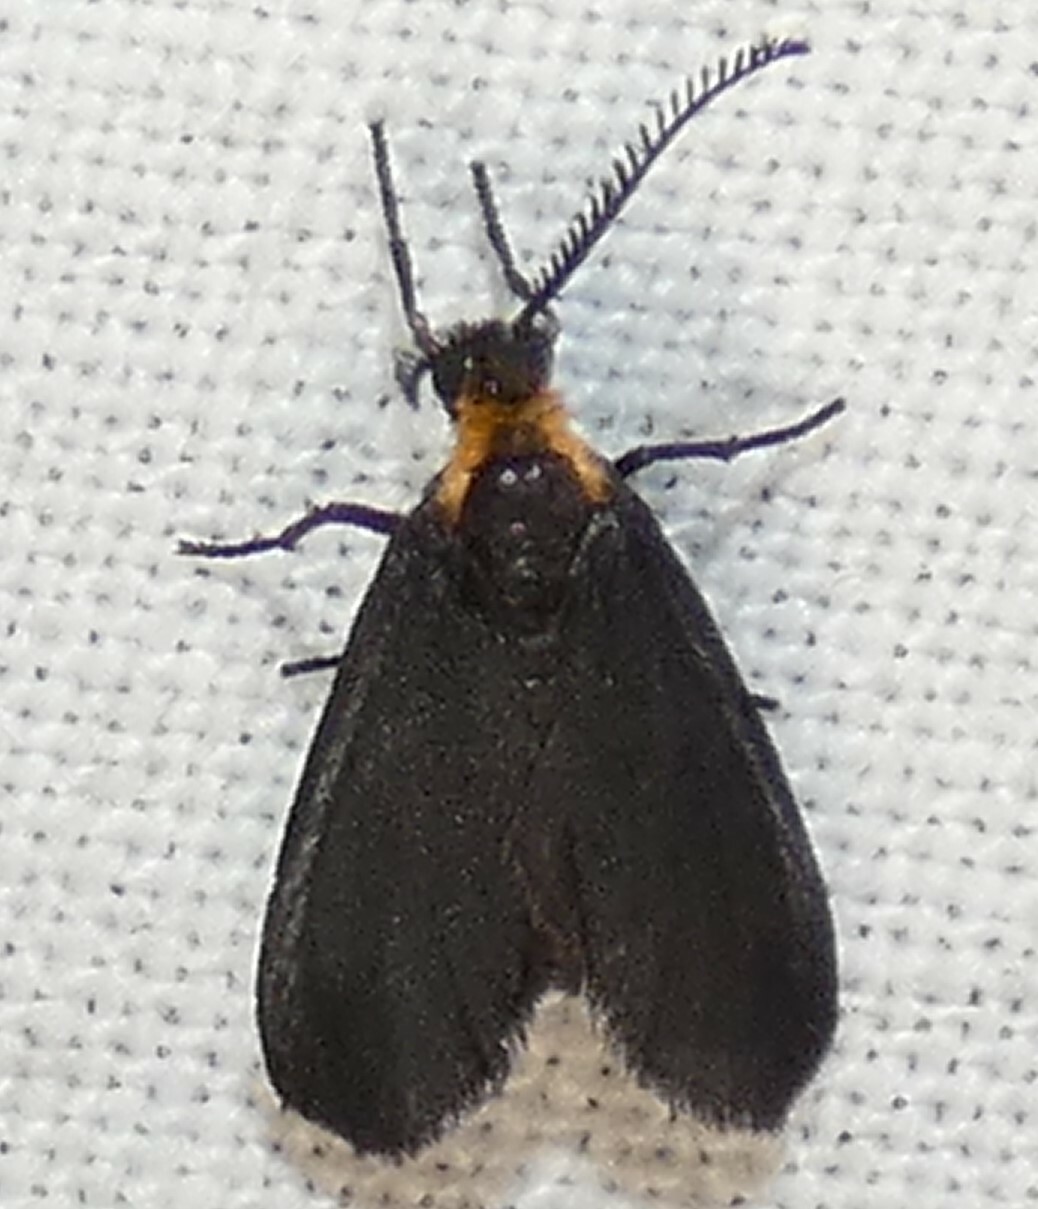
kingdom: Animalia
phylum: Arthropoda
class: Insecta
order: Lepidoptera
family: Zygaenidae
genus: Acoloithus
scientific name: Acoloithus falsarius
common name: Clemens' false skeletonizer
